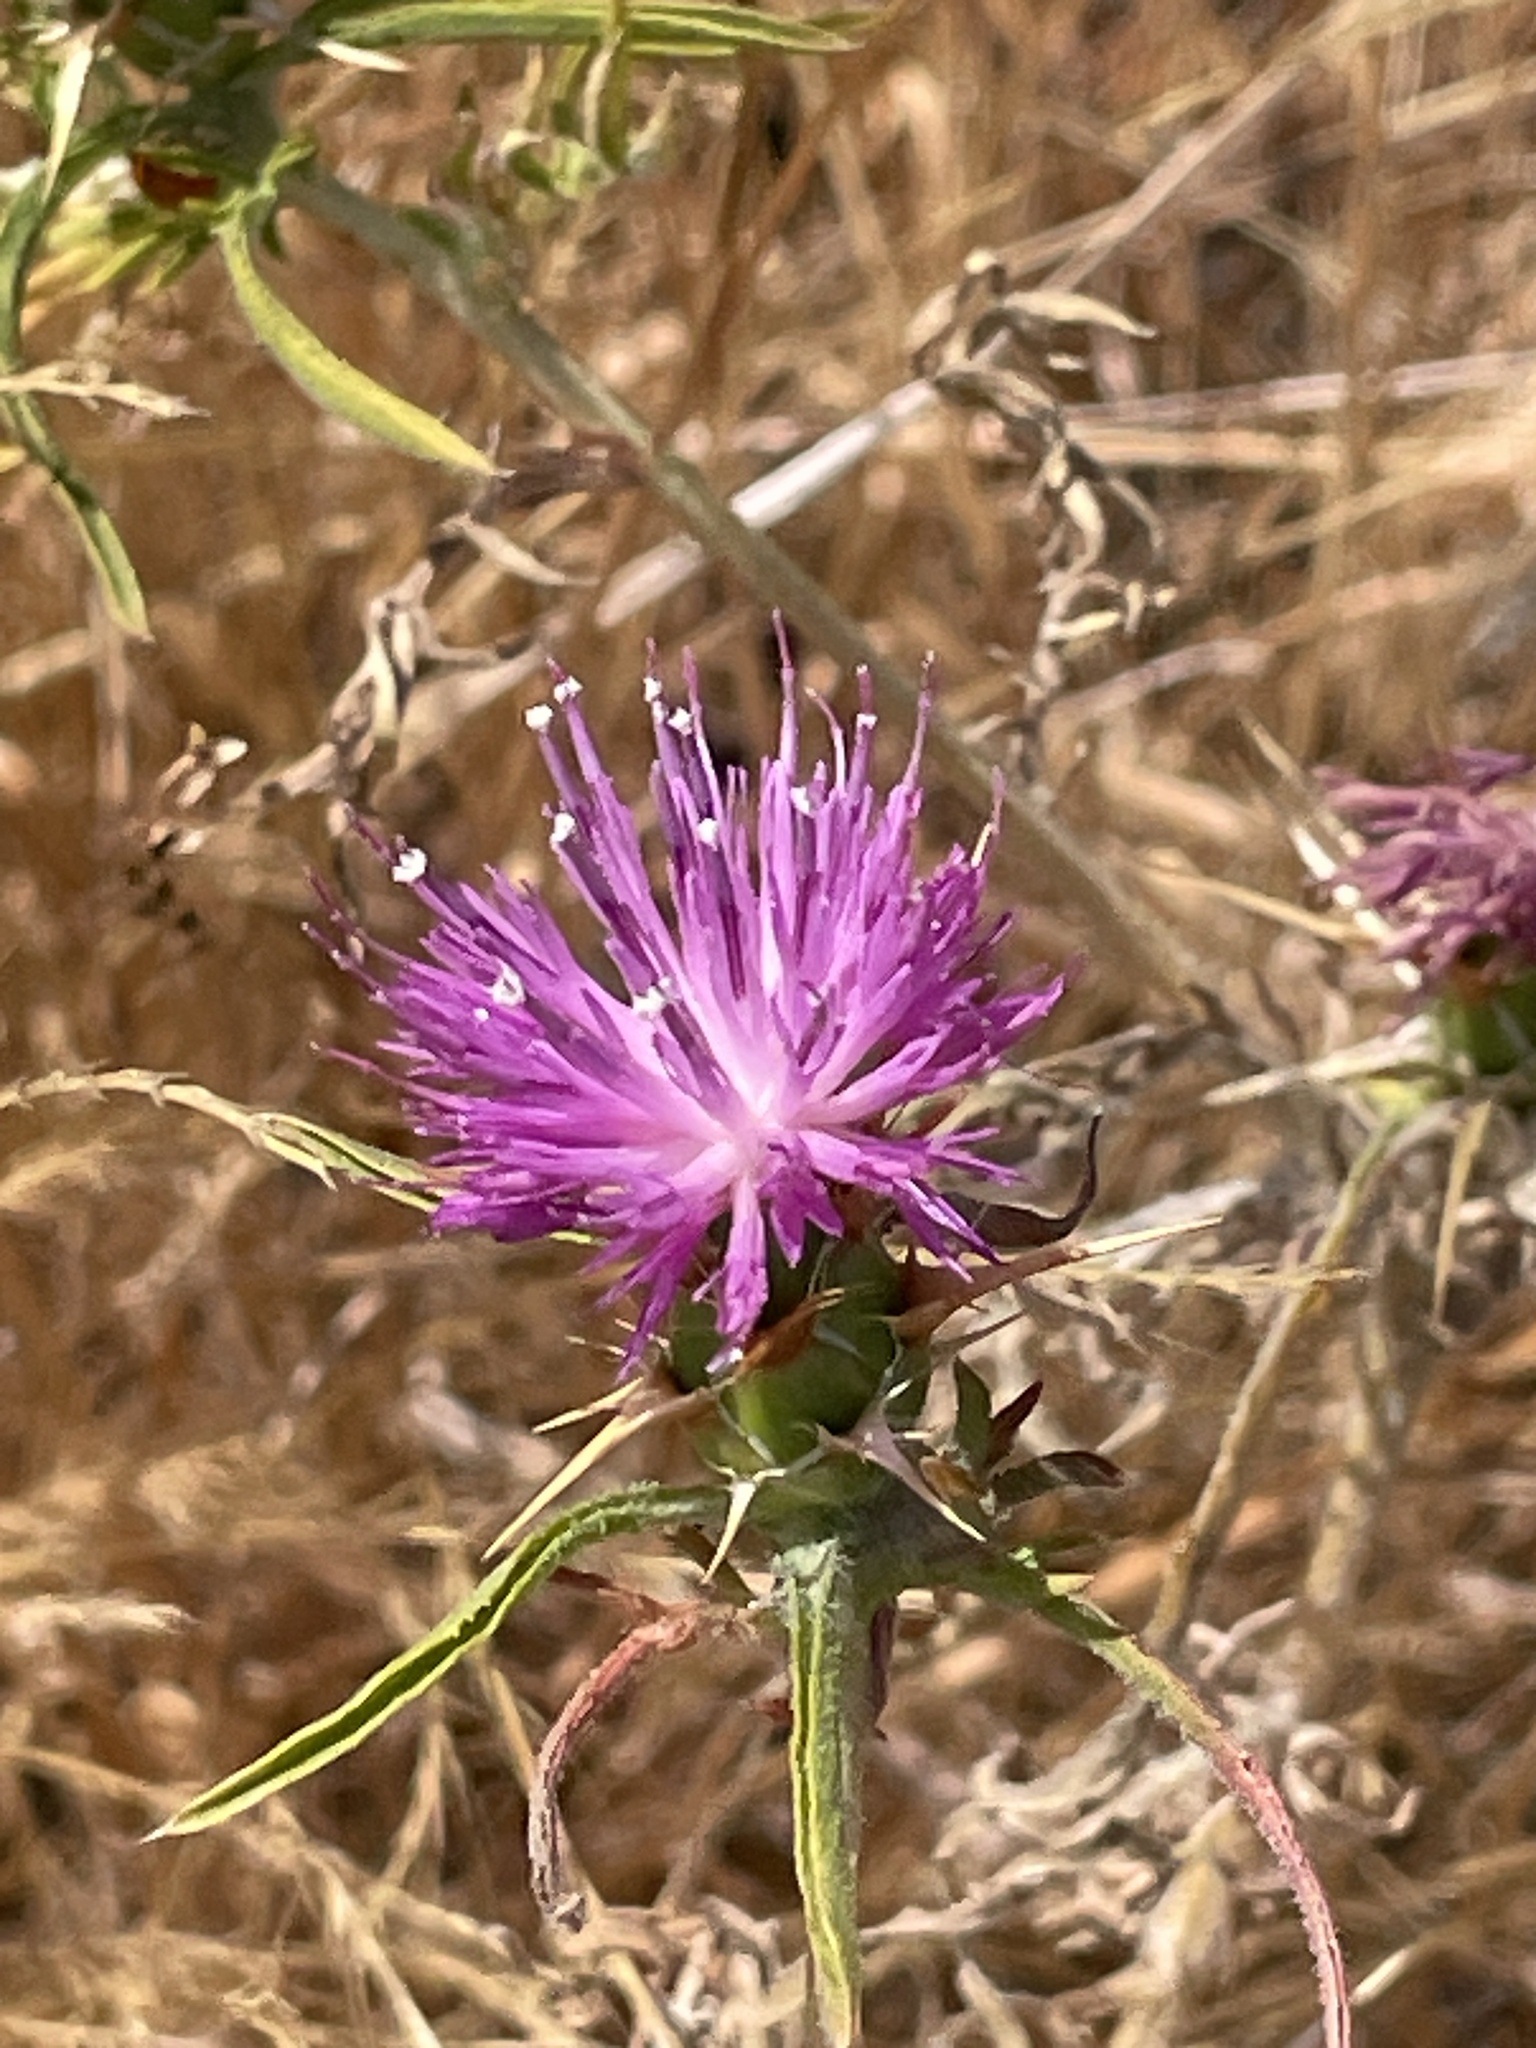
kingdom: Plantae
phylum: Tracheophyta
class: Magnoliopsida
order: Asterales
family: Asteraceae
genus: Centaurea
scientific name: Centaurea calcitrapa
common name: Red star-thistle
